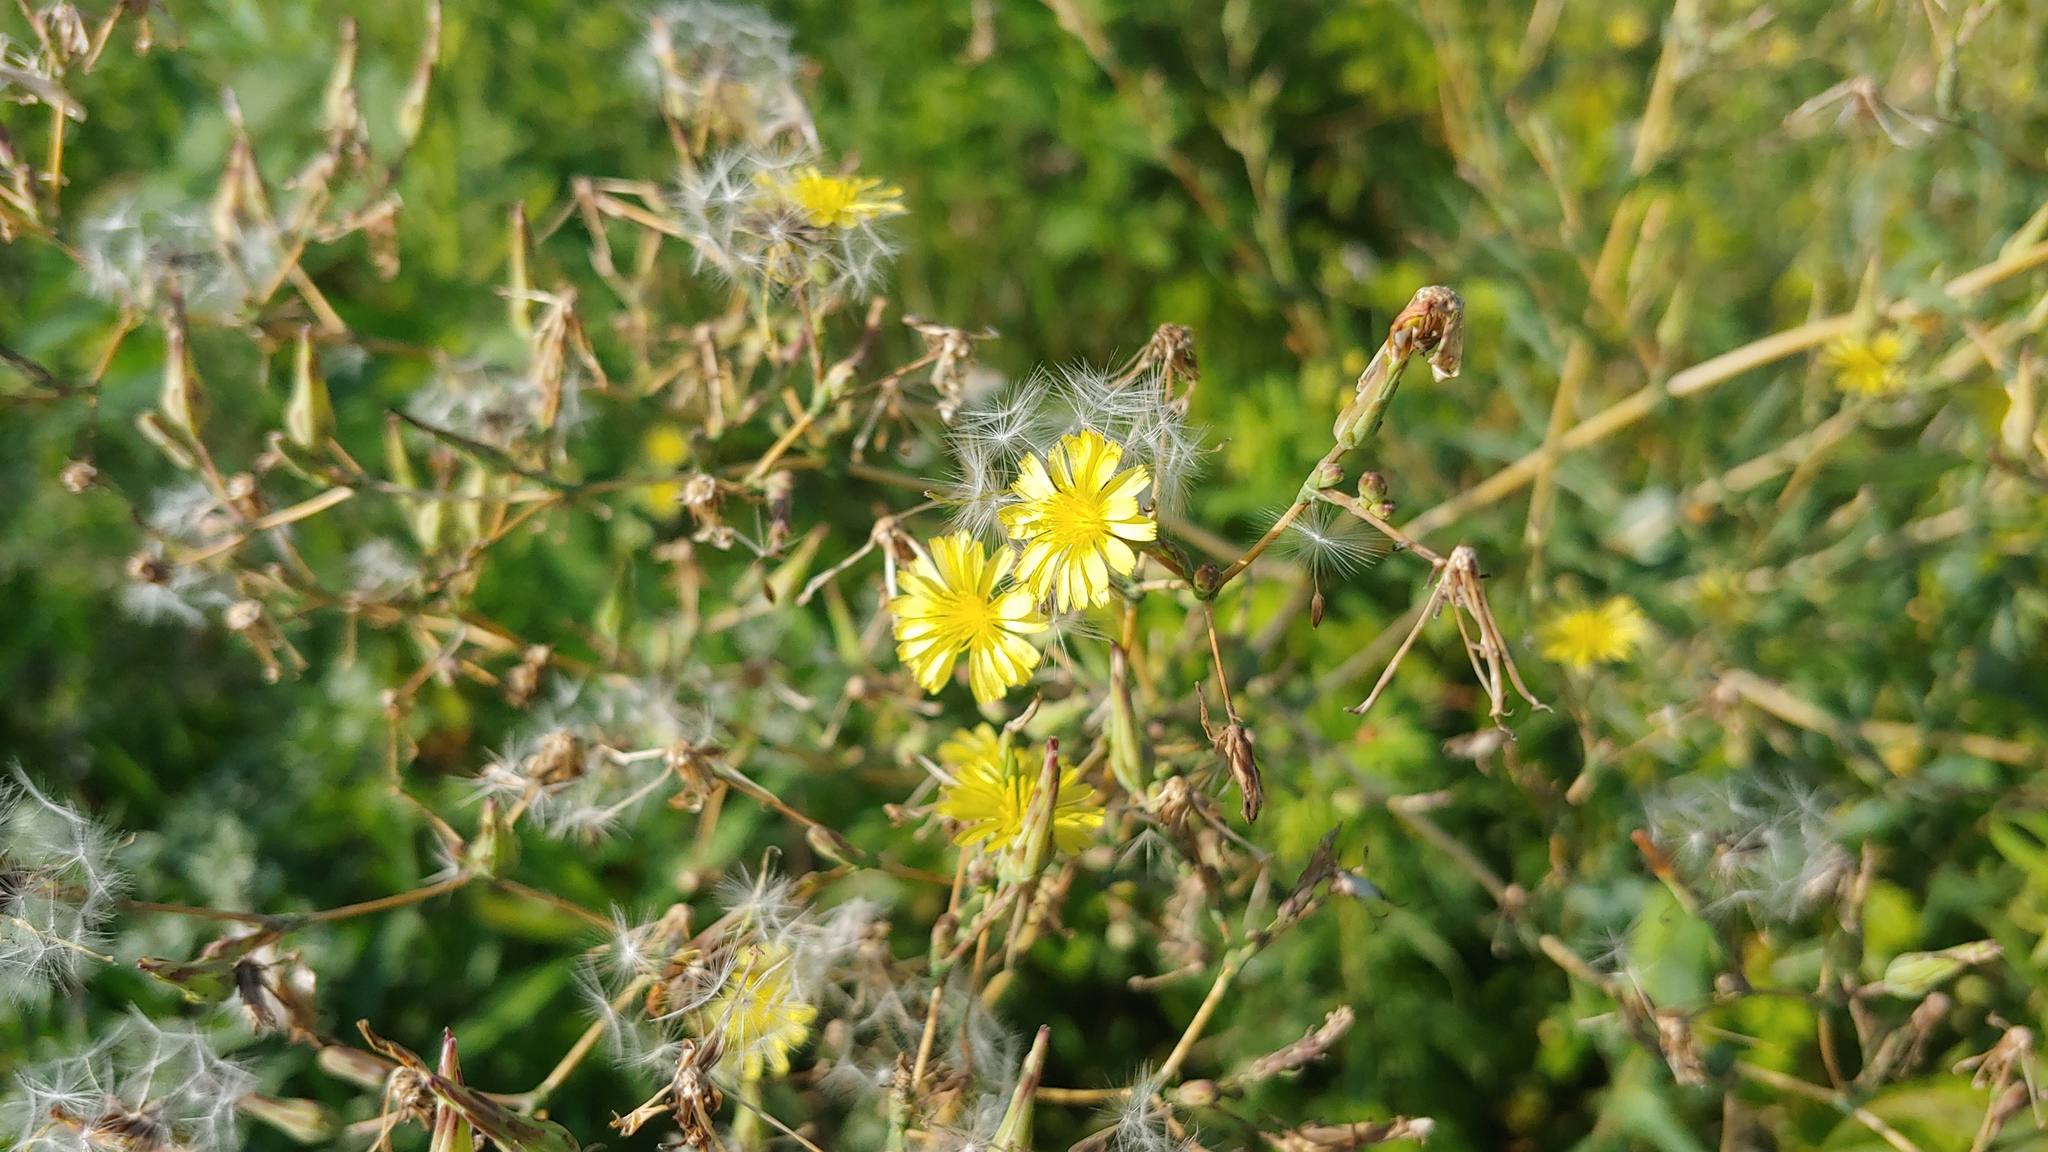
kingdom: Plantae
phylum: Tracheophyta
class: Magnoliopsida
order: Asterales
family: Asteraceae
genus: Lactuca
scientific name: Lactuca serriola
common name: Prickly lettuce
